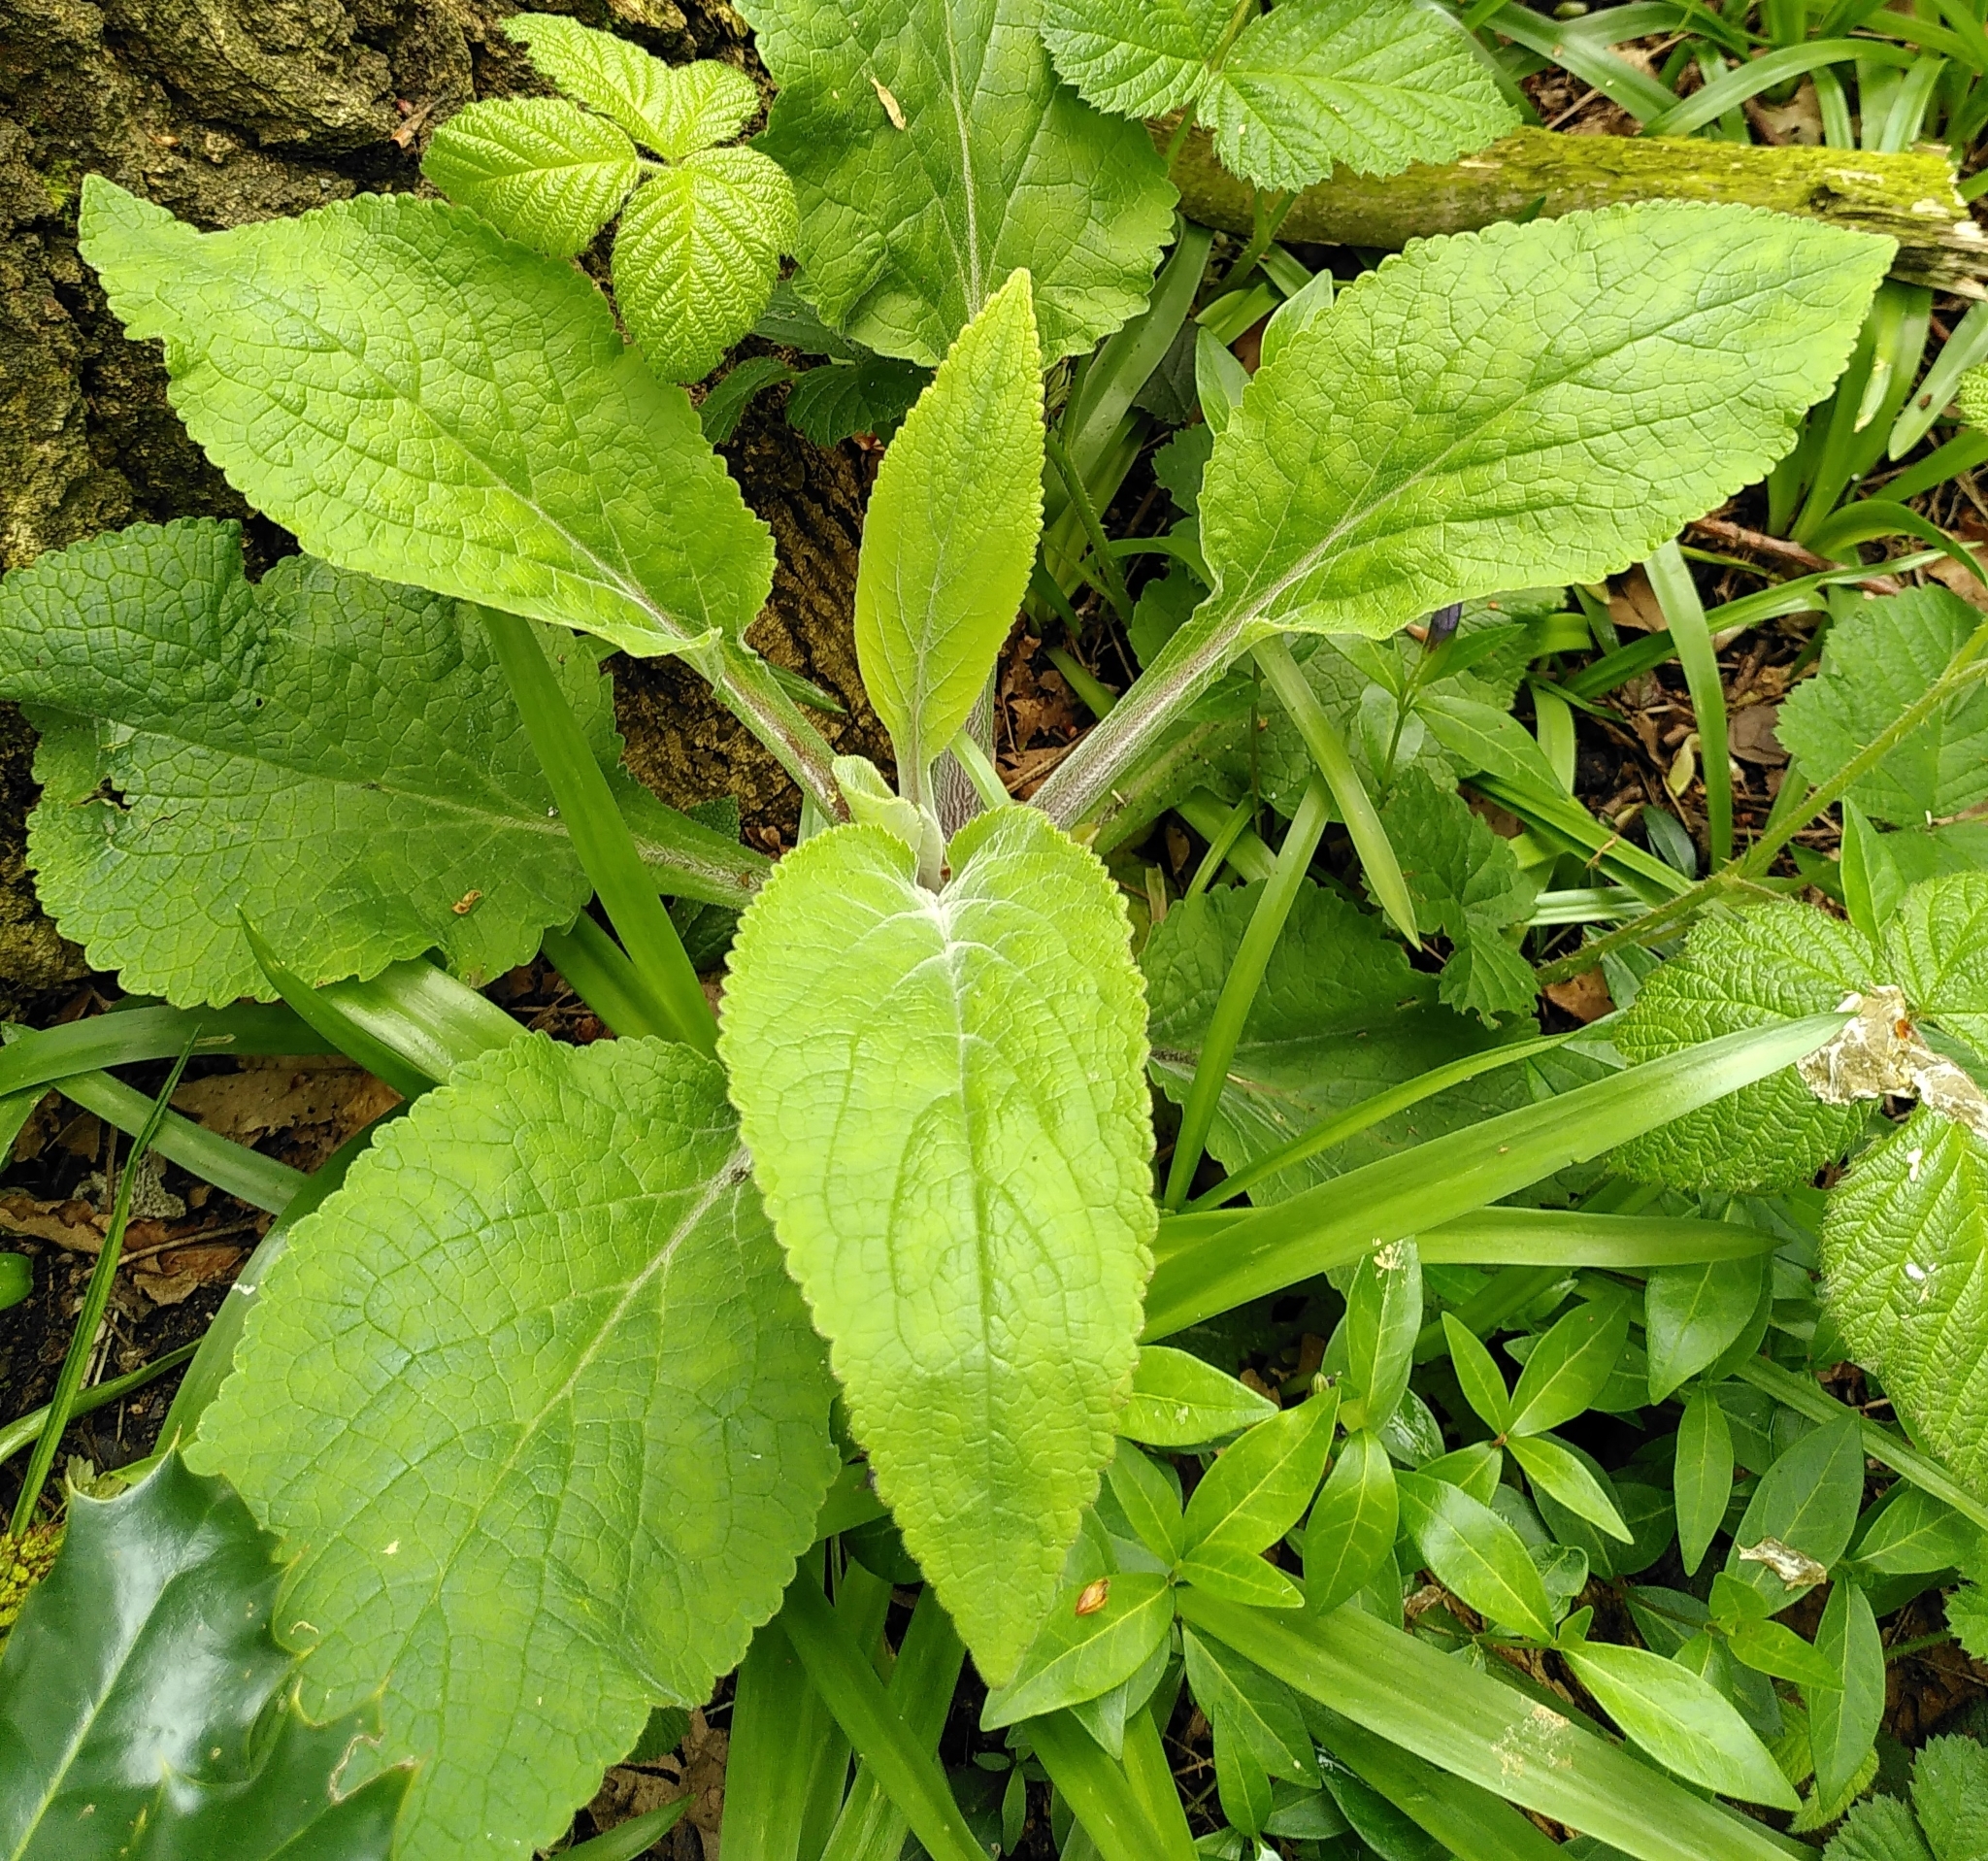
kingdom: Plantae
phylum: Tracheophyta
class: Magnoliopsida
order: Lamiales
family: Plantaginaceae
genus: Digitalis
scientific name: Digitalis purpurea
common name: Foxglove
